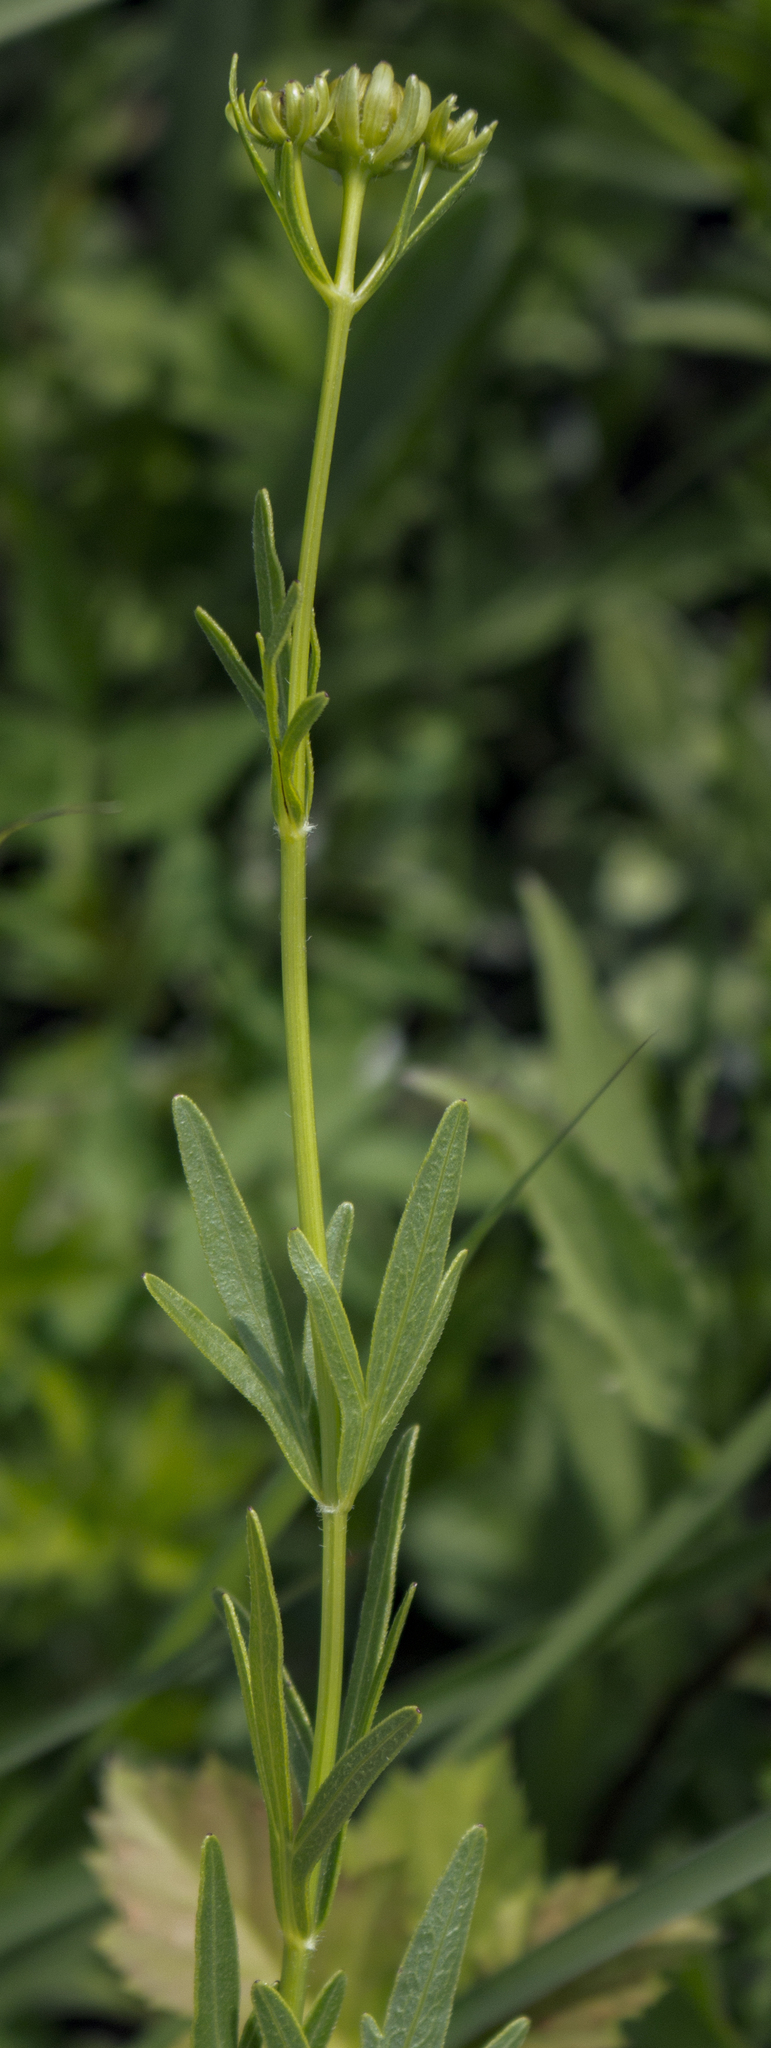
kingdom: Plantae
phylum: Tracheophyta
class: Magnoliopsida
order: Asterales
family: Asteraceae
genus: Coreopsis
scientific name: Coreopsis palmata
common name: Prairie coreopsis
